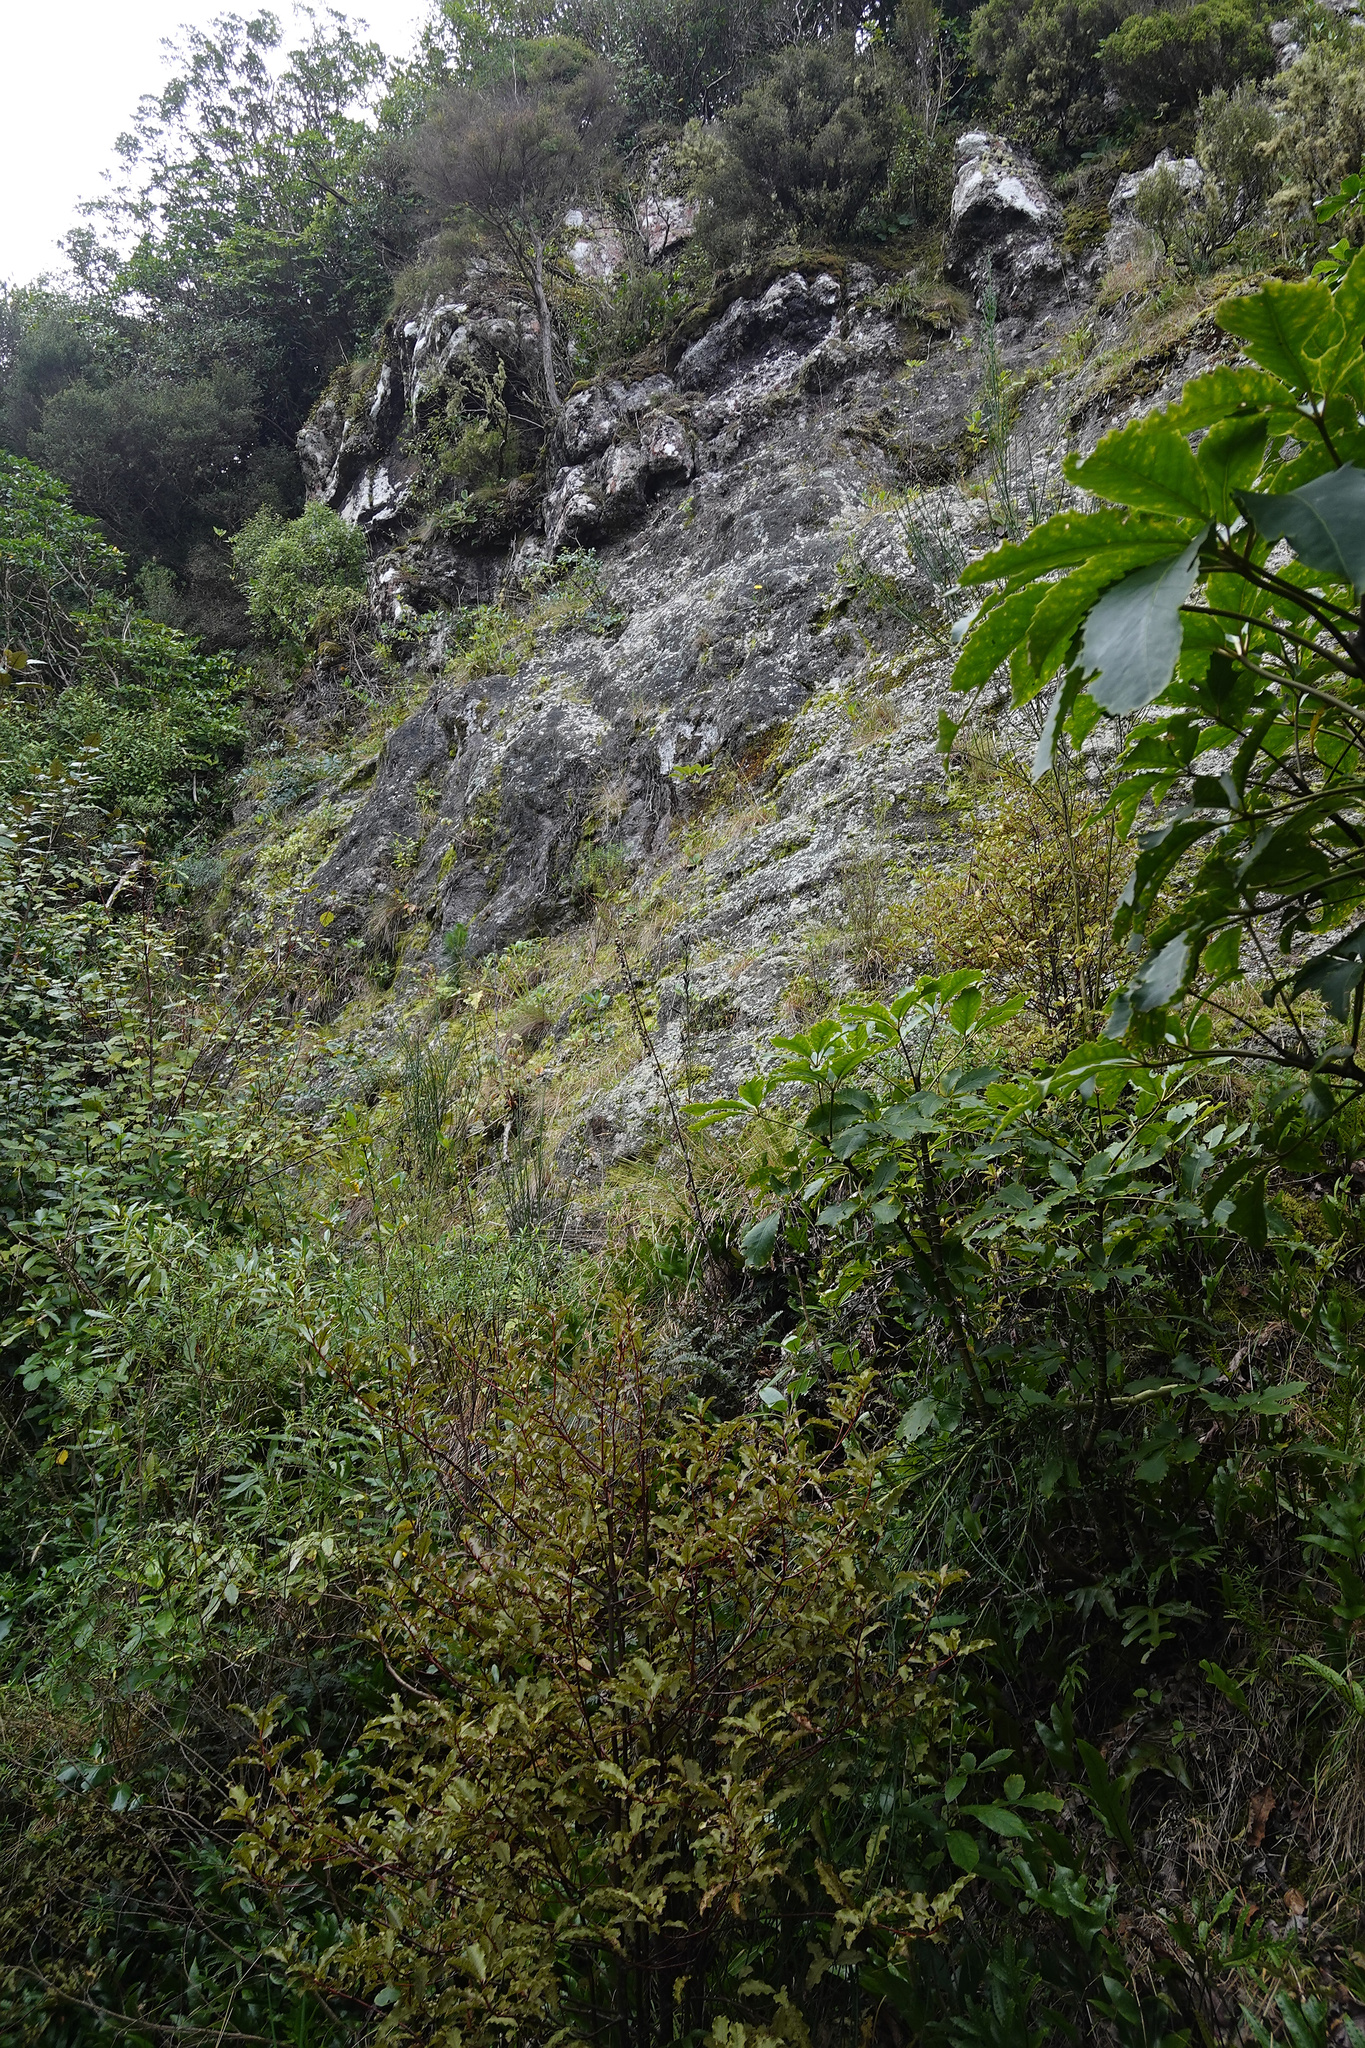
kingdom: Plantae
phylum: Tracheophyta
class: Magnoliopsida
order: Fabales
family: Fabaceae
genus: Ulex
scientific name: Ulex europaeus
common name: Common gorse
